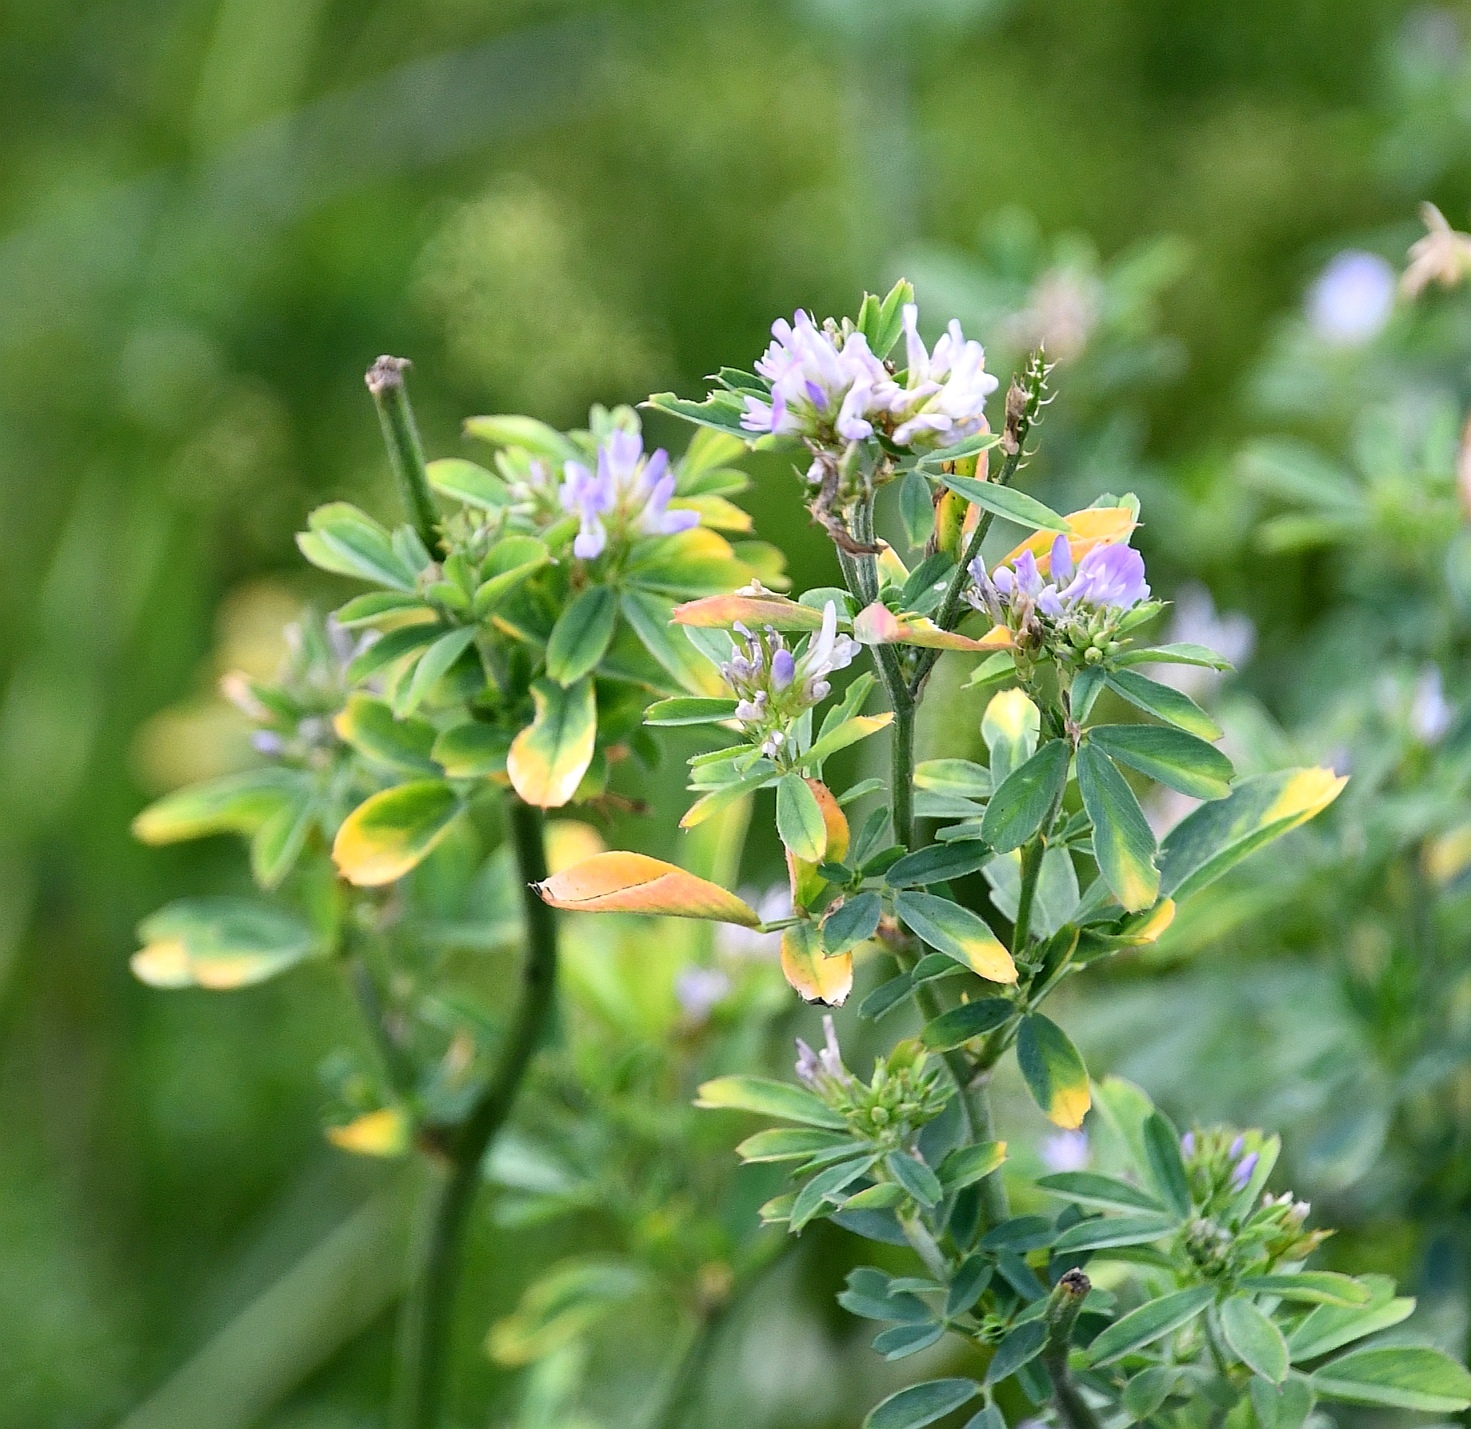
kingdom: Plantae
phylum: Tracheophyta
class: Magnoliopsida
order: Fabales
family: Fabaceae
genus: Medicago
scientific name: Medicago sativa
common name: Alfalfa
